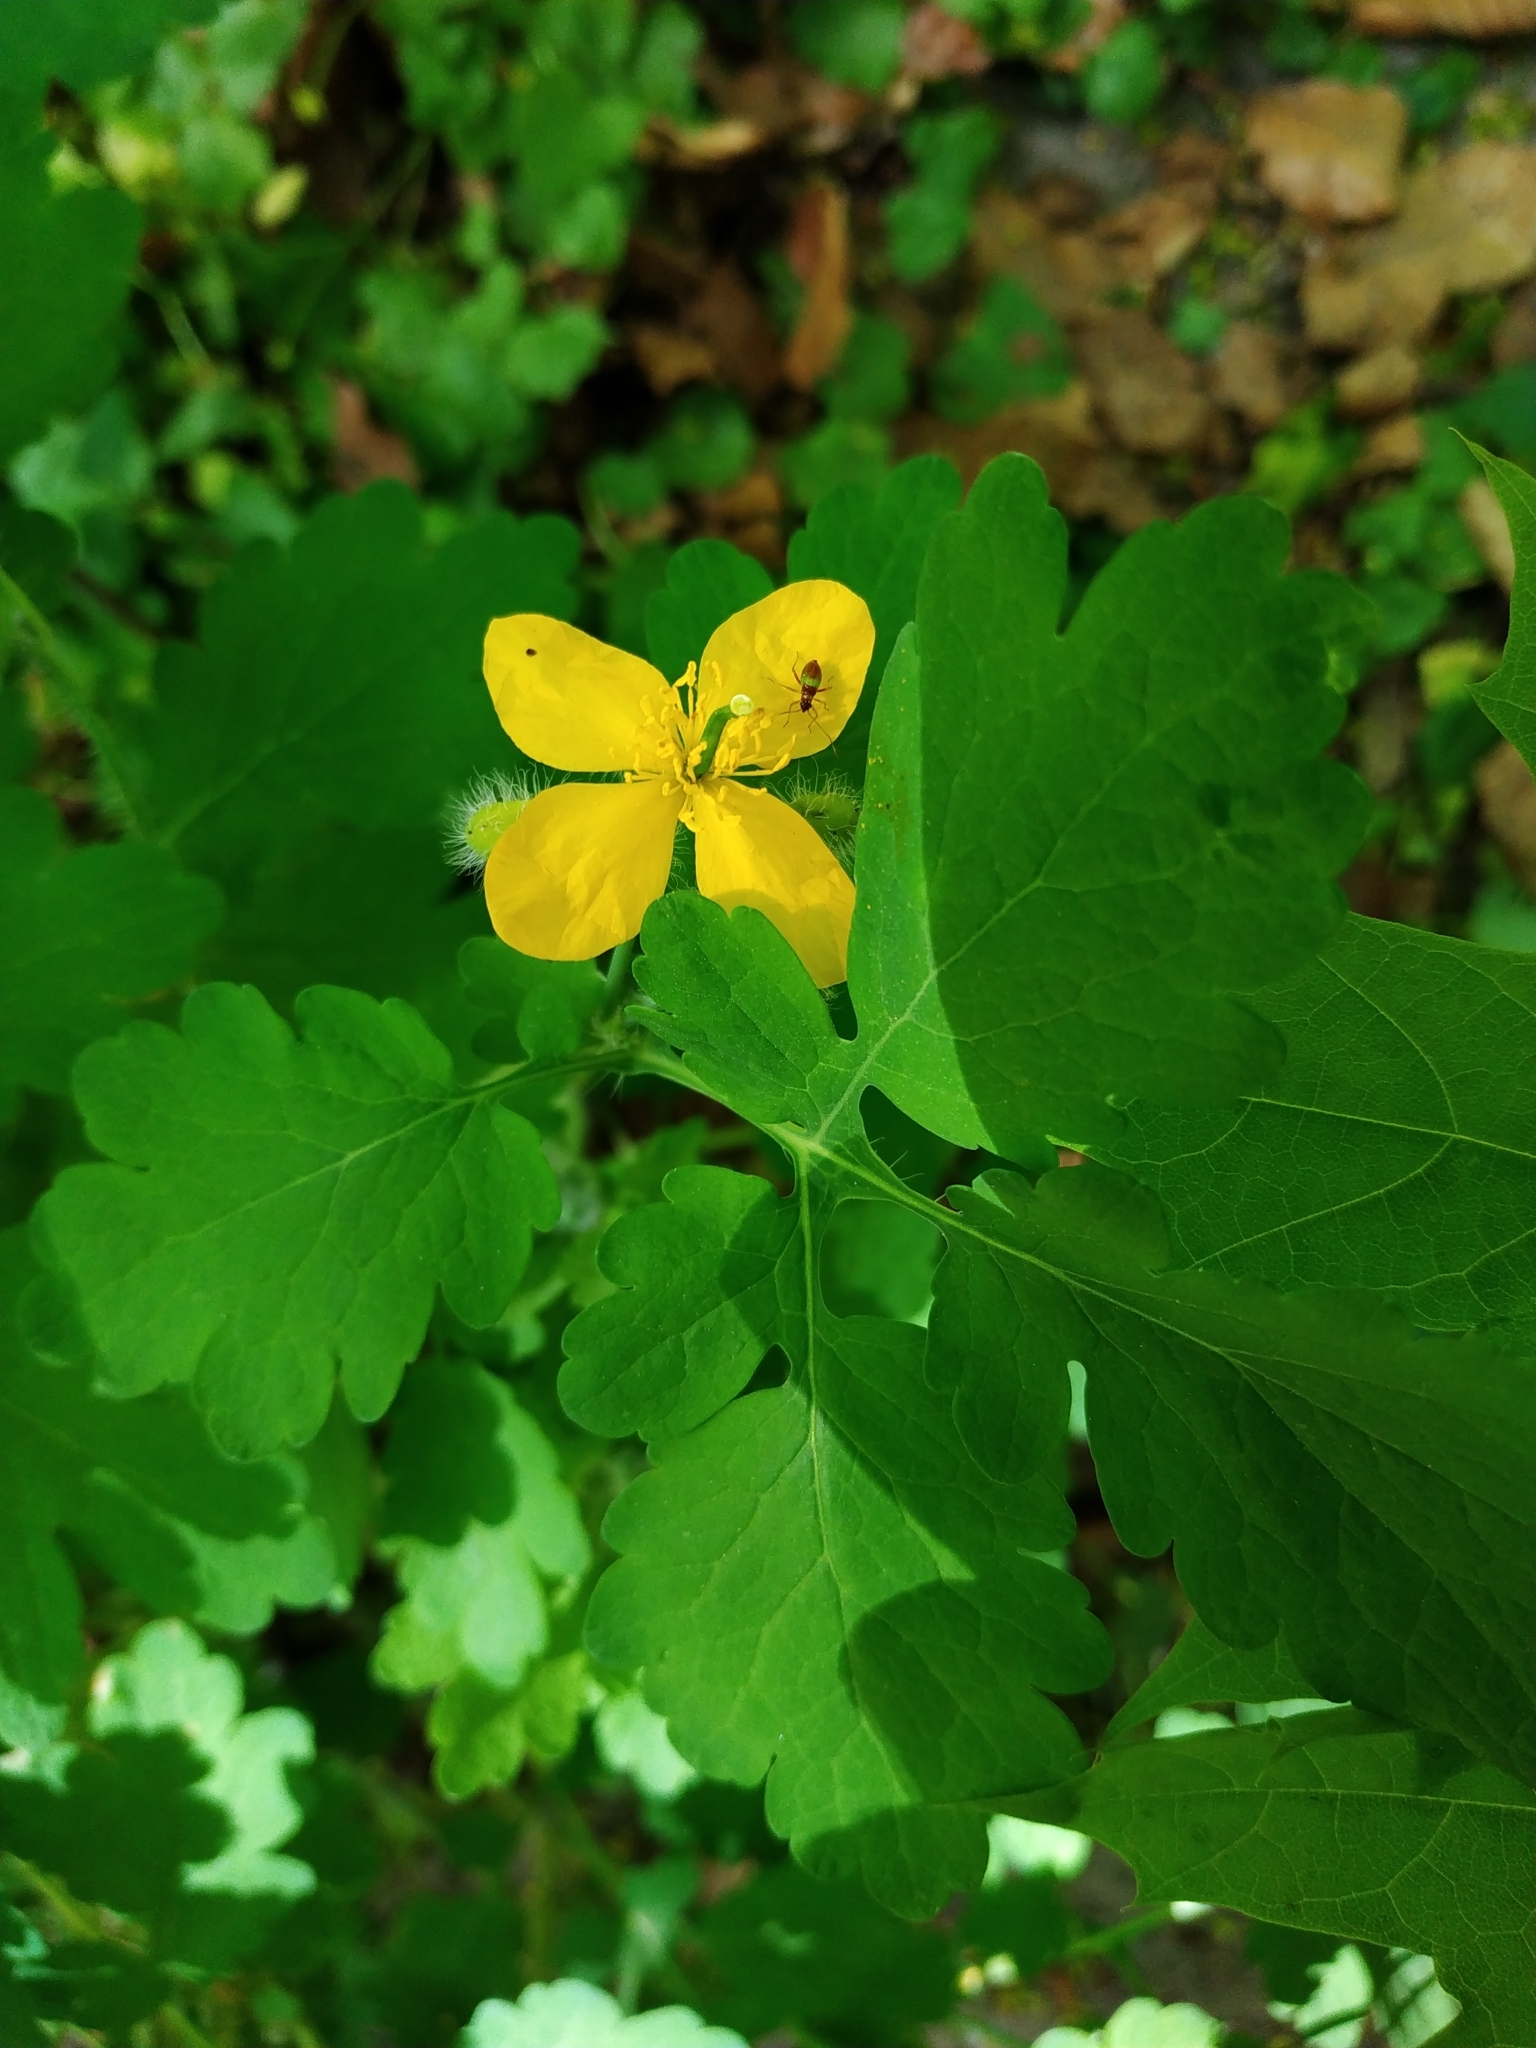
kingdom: Plantae
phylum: Tracheophyta
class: Magnoliopsida
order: Ranunculales
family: Papaveraceae
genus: Chelidonium
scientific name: Chelidonium majus
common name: Greater celandine
